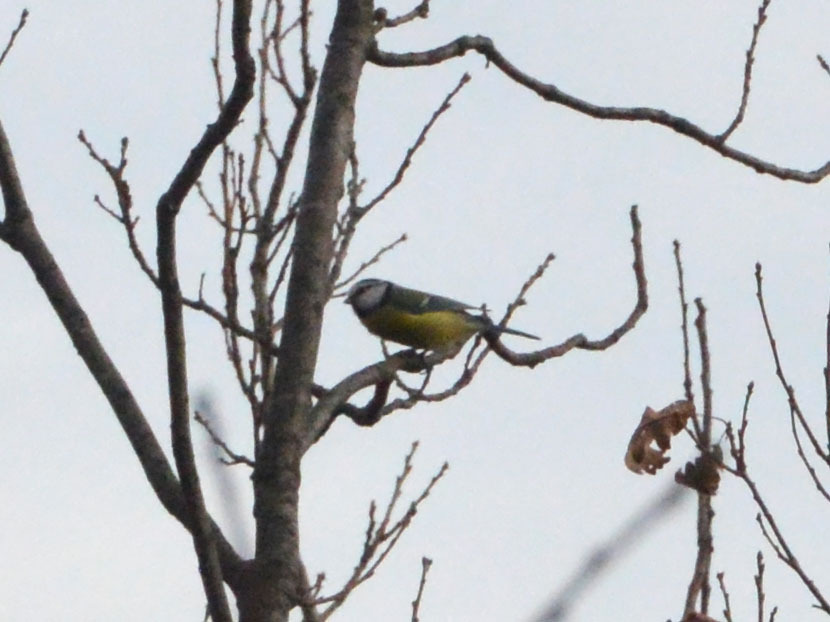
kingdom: Animalia
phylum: Chordata
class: Aves
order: Passeriformes
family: Paridae
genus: Cyanistes
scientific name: Cyanistes caeruleus
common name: Eurasian blue tit
